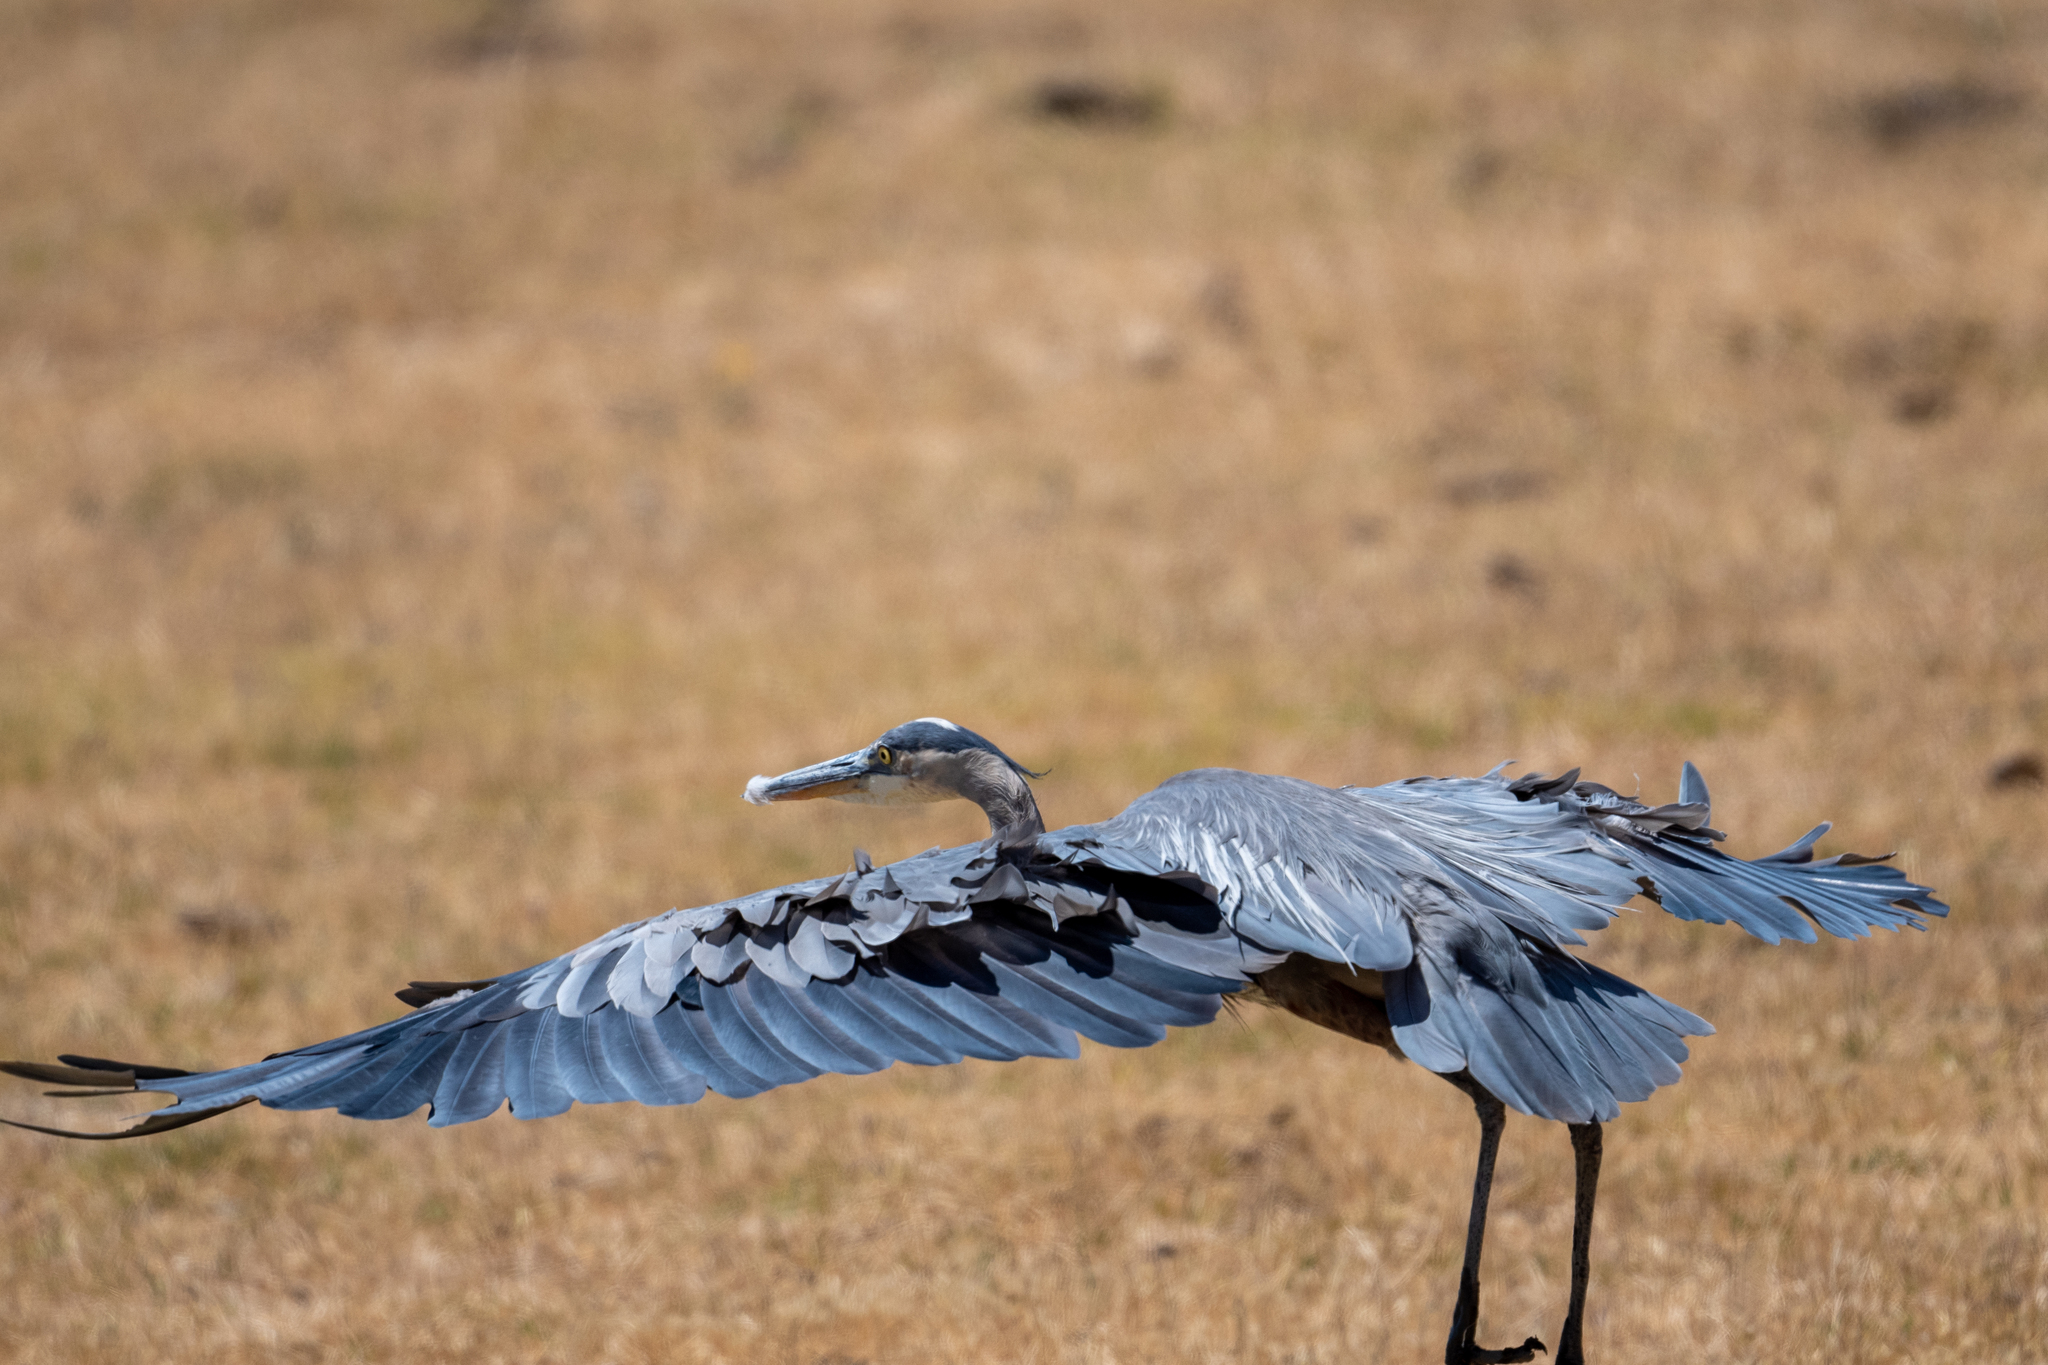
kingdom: Animalia
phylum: Chordata
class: Aves
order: Pelecaniformes
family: Ardeidae
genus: Ardea
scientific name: Ardea herodias
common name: Great blue heron
